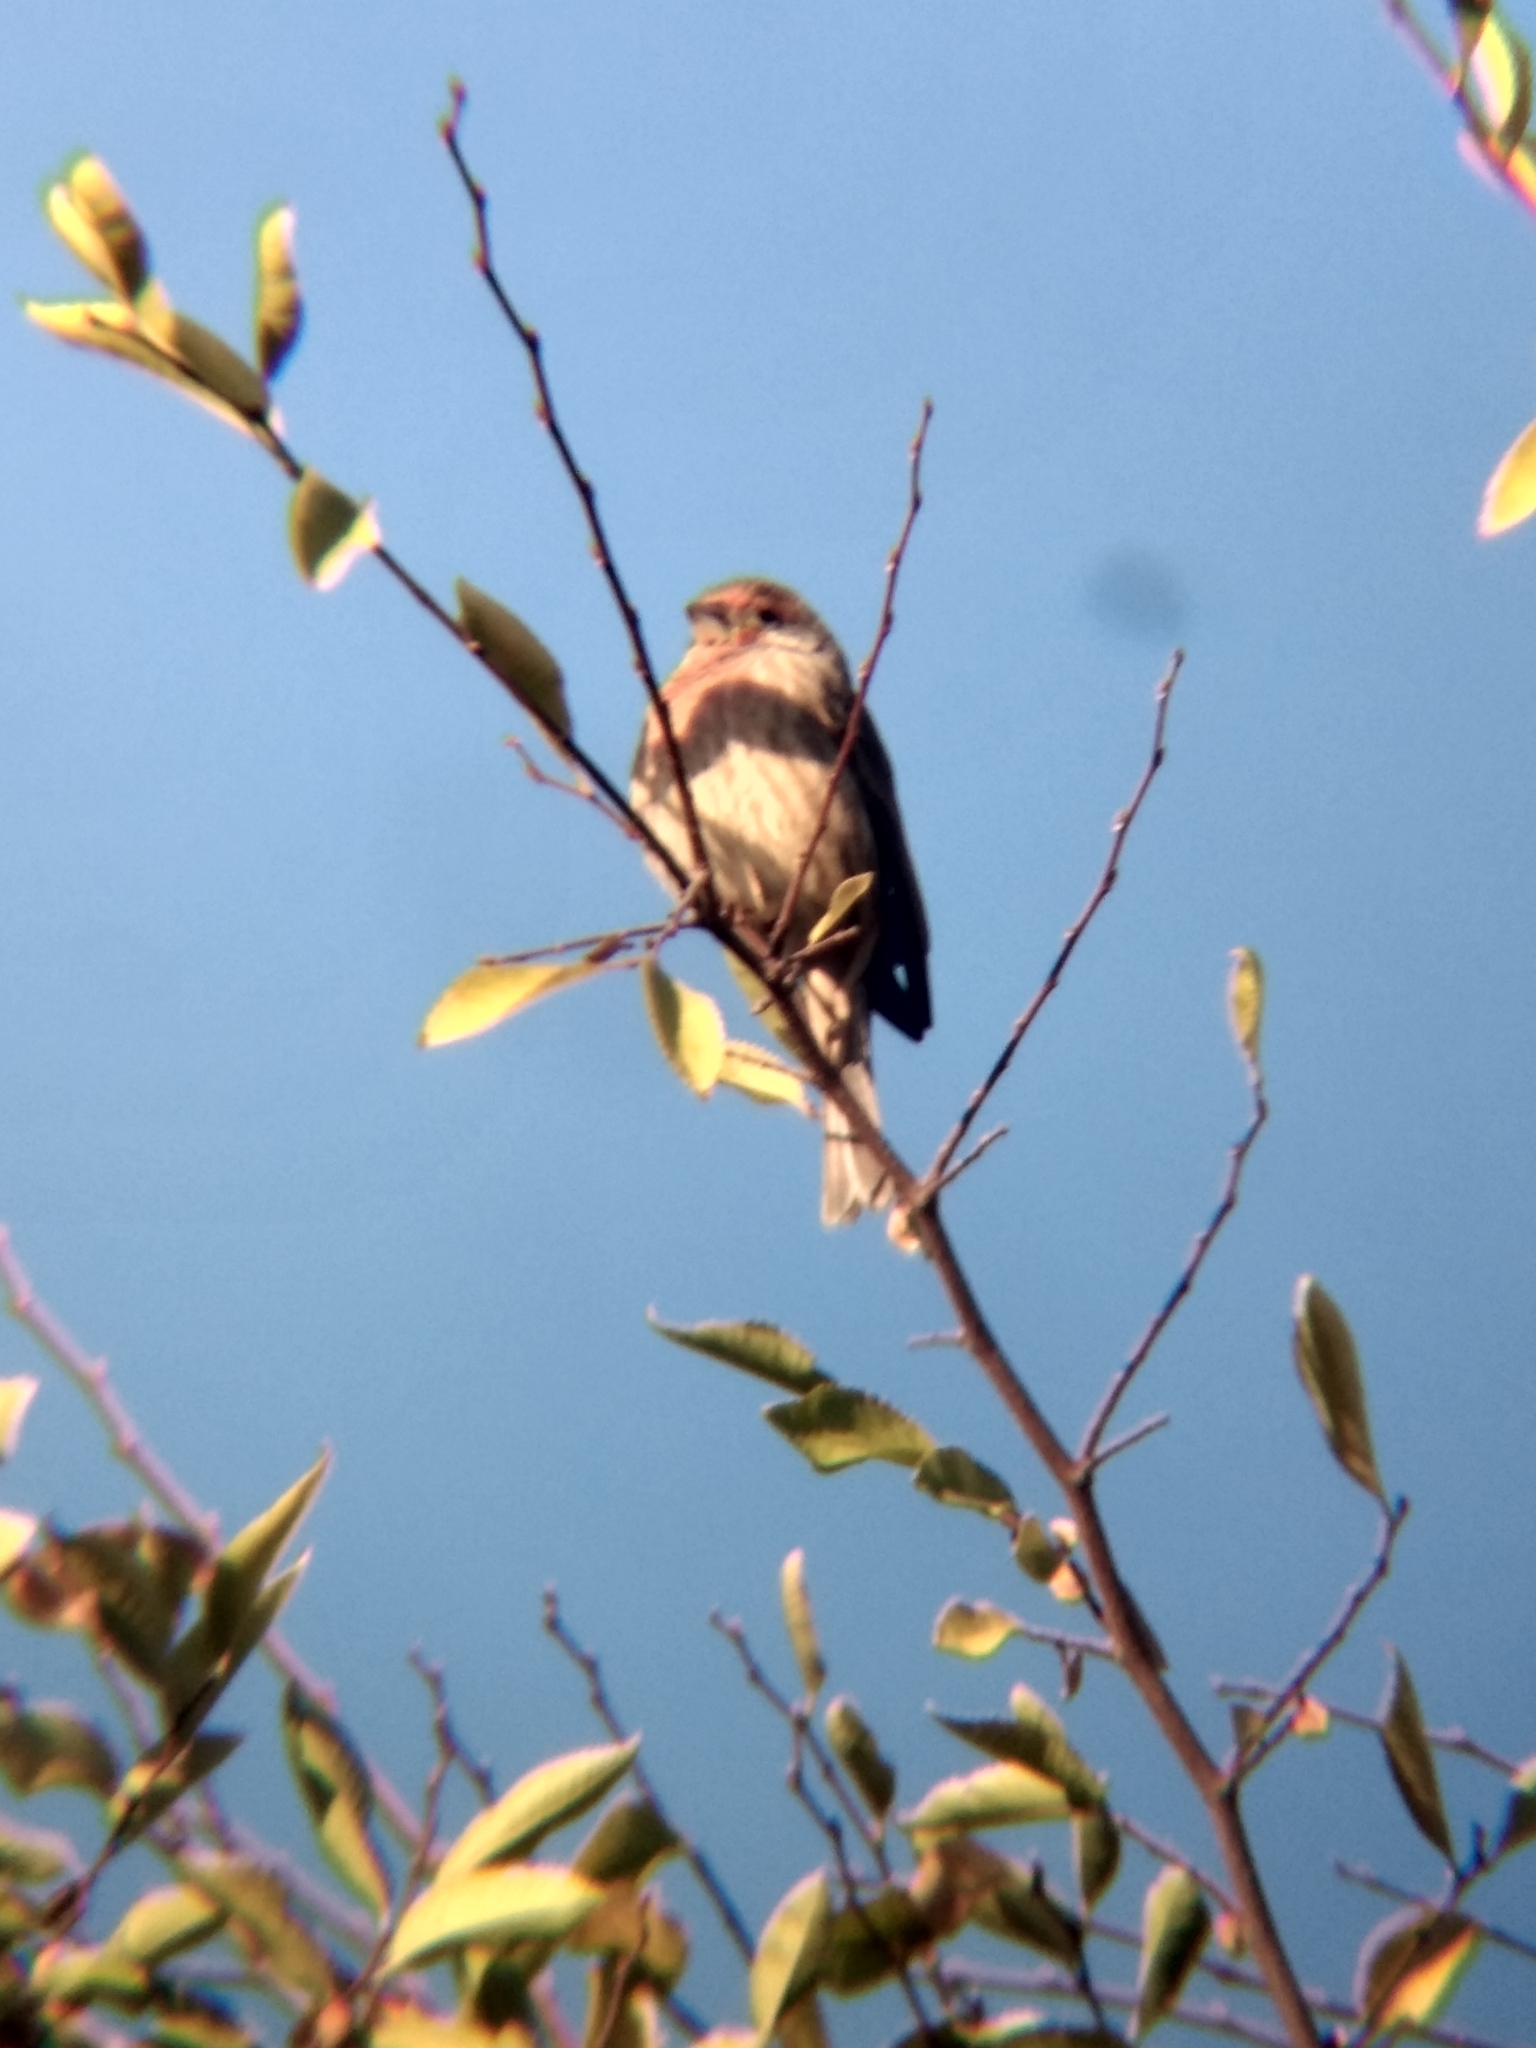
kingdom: Animalia
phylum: Chordata
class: Aves
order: Passeriformes
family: Fringillidae
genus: Haemorhous
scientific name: Haemorhous mexicanus
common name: House finch
